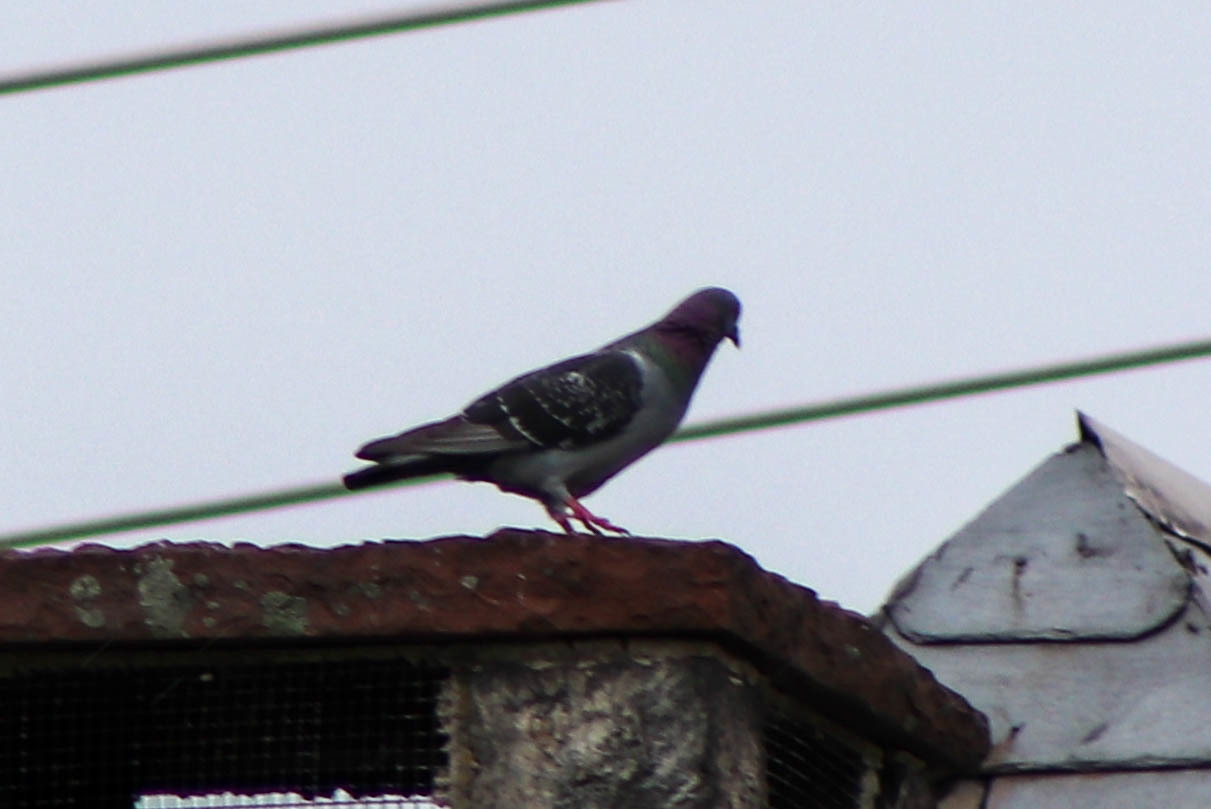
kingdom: Animalia
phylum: Chordata
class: Aves
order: Columbiformes
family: Columbidae
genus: Columba
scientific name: Columba livia
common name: Rock pigeon
